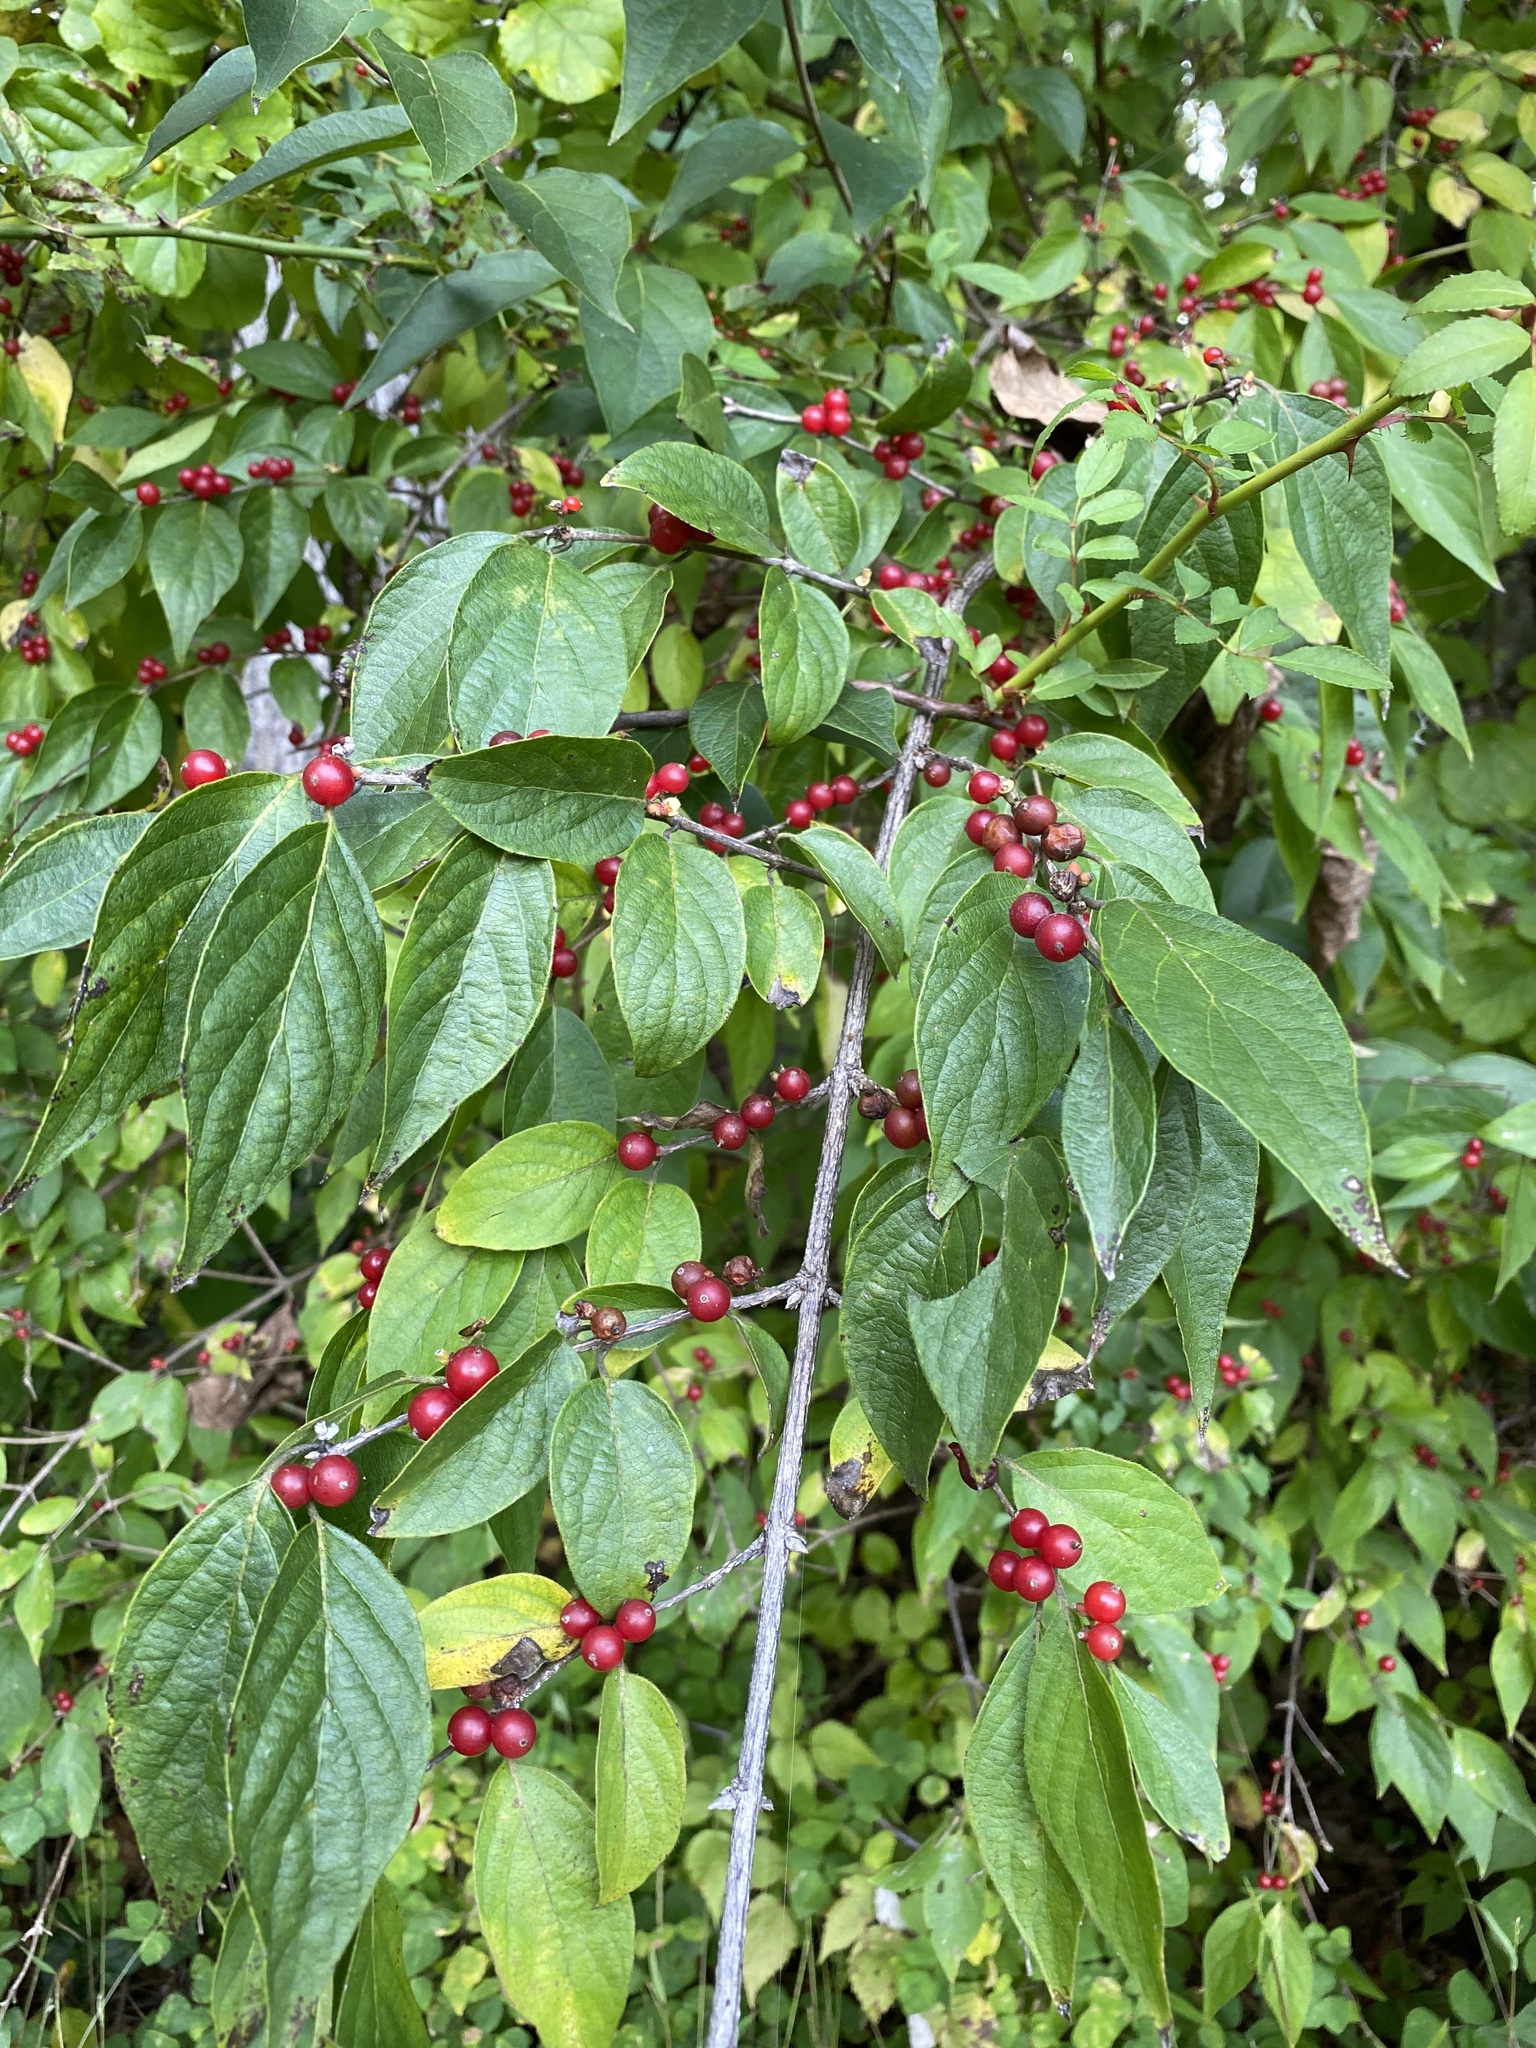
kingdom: Plantae
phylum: Tracheophyta
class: Magnoliopsida
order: Dipsacales
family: Caprifoliaceae
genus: Lonicera
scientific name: Lonicera maackii
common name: Amur honeysuckle
